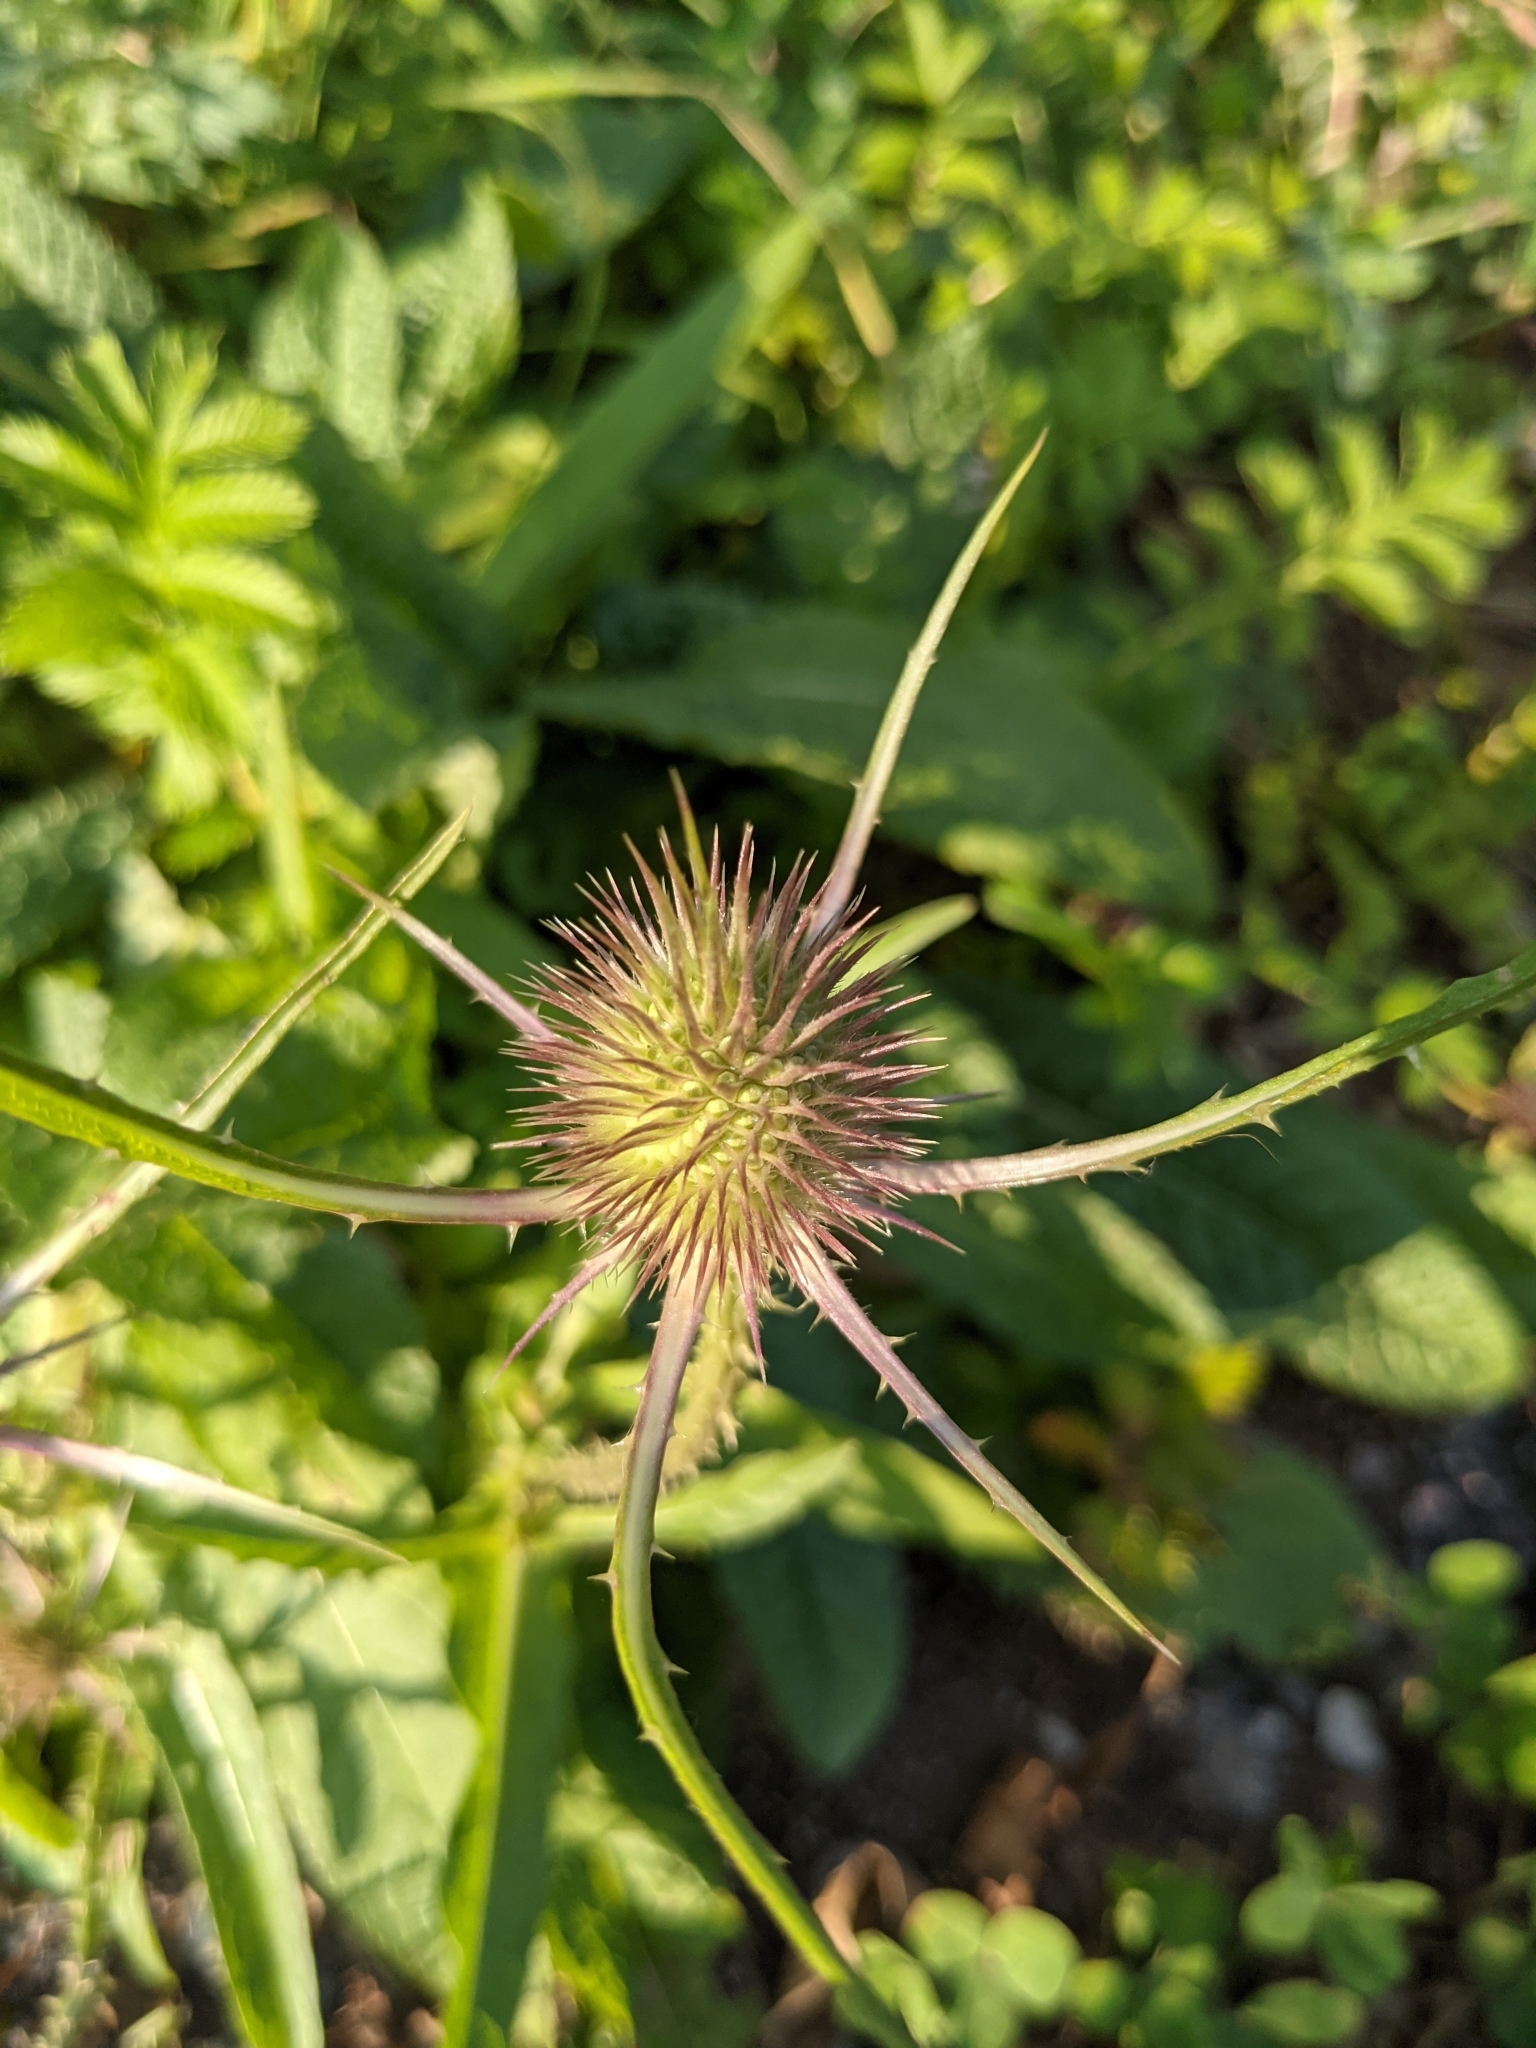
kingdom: Plantae
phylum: Tracheophyta
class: Magnoliopsida
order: Dipsacales
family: Caprifoliaceae
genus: Dipsacus
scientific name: Dipsacus fullonum
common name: Teasel
